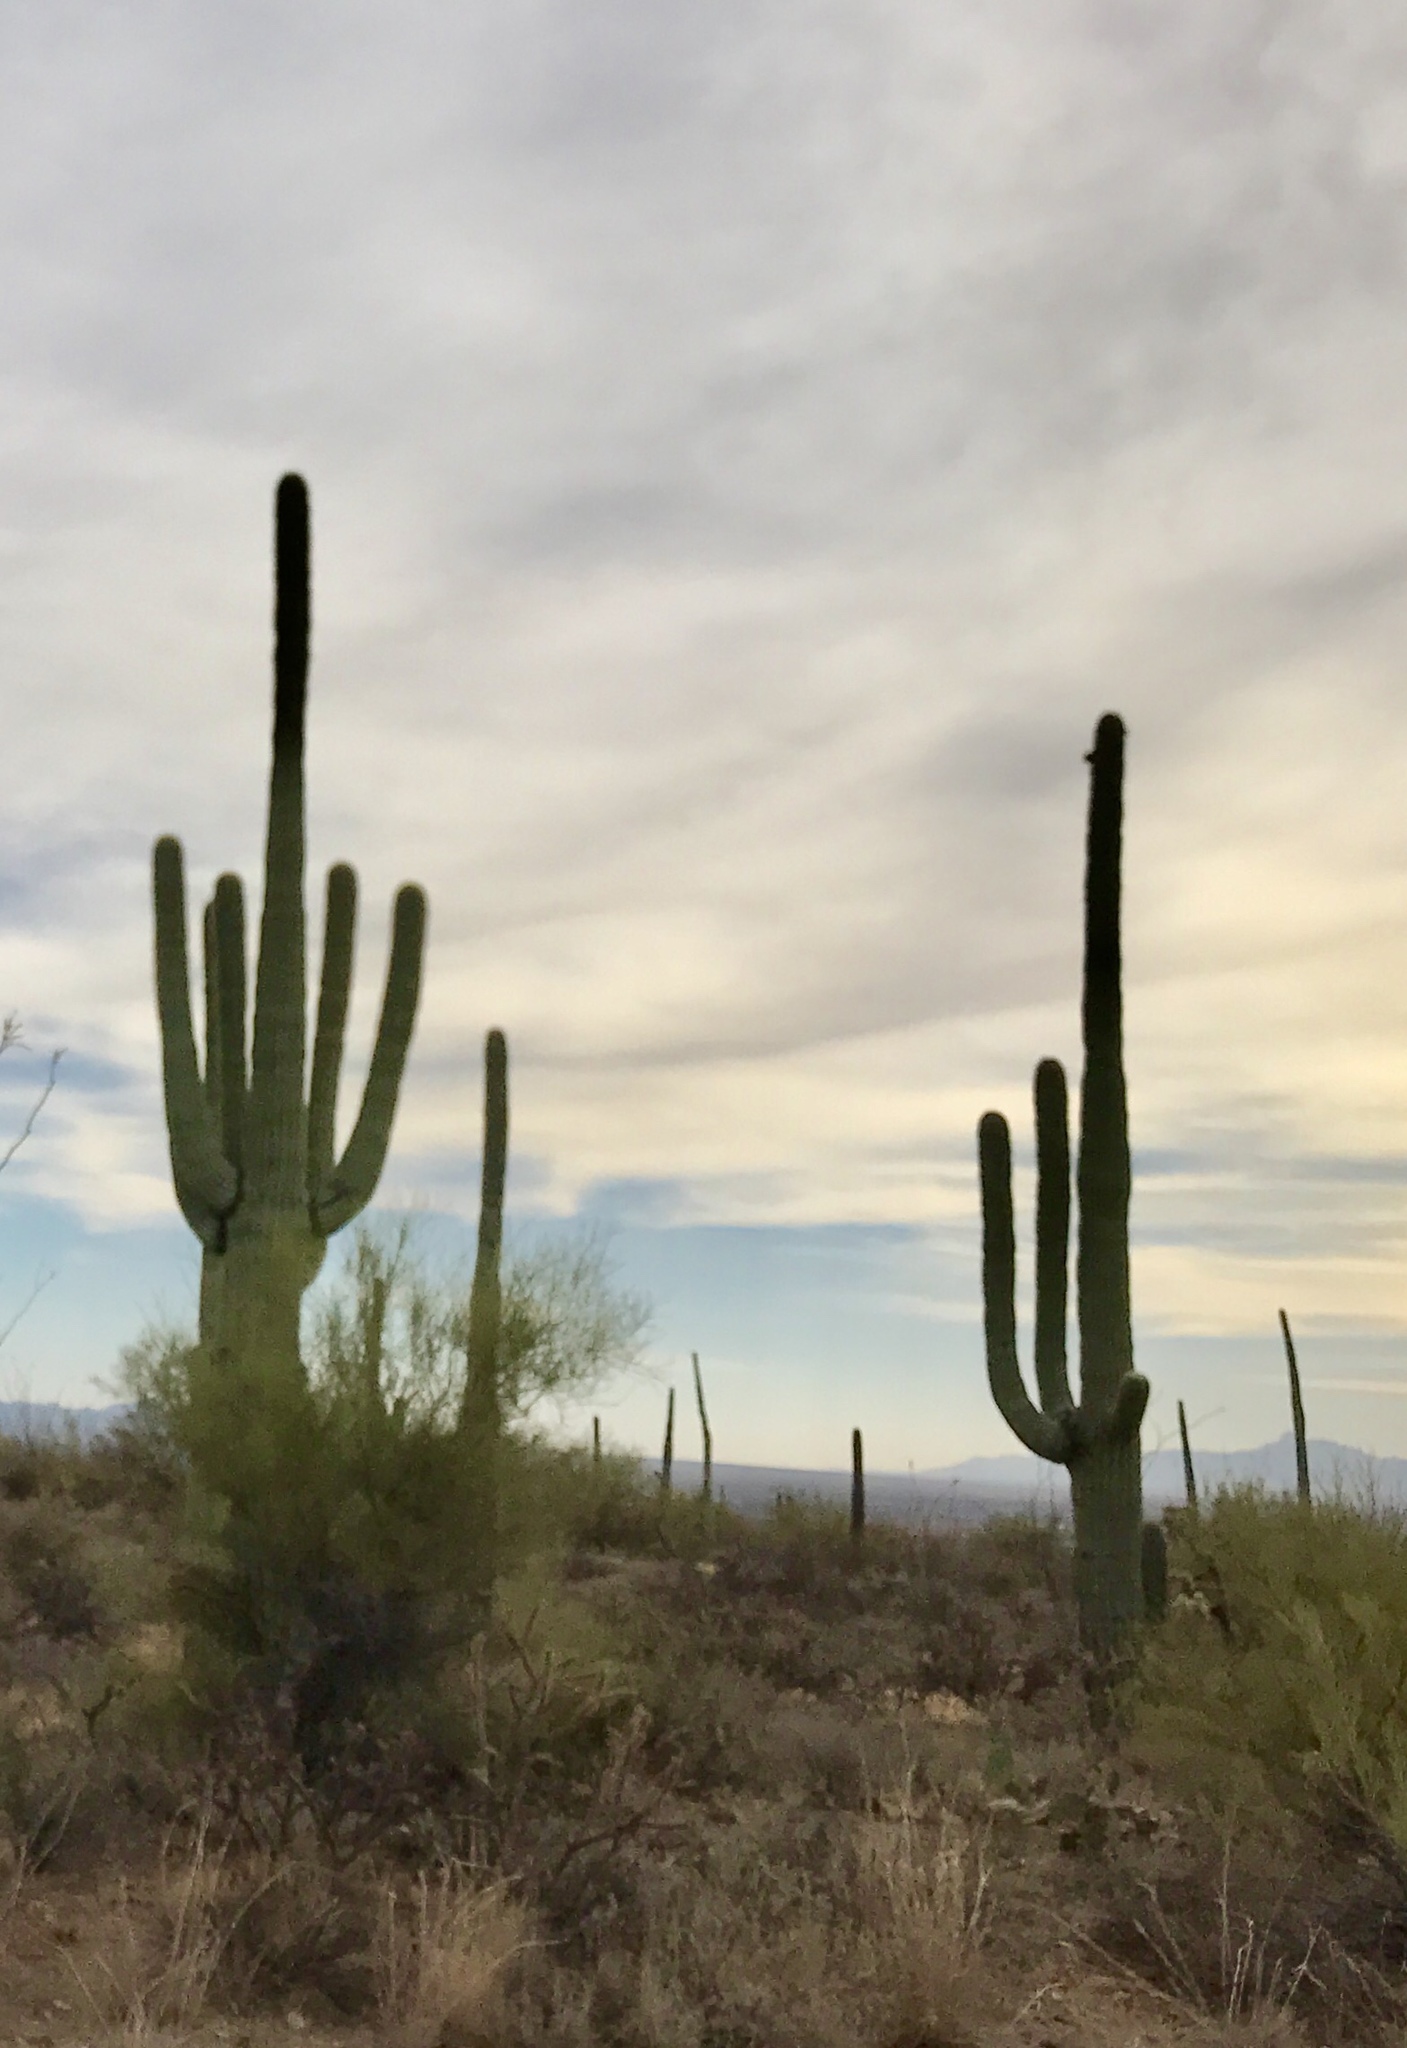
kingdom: Plantae
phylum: Tracheophyta
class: Magnoliopsida
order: Caryophyllales
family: Cactaceae
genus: Carnegiea
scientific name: Carnegiea gigantea
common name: Saguaro
